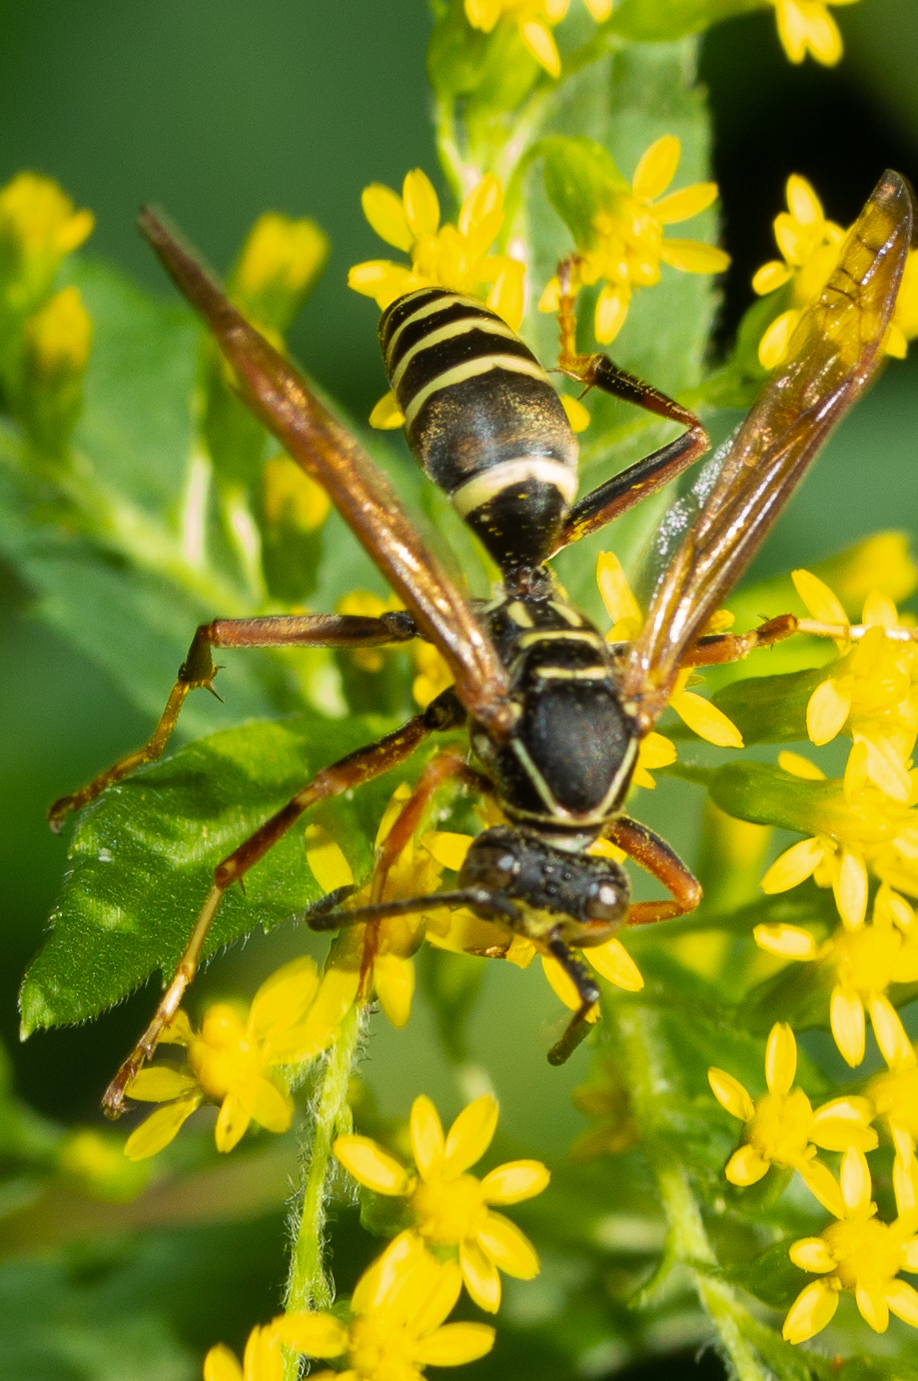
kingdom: Animalia
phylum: Arthropoda
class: Insecta
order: Hymenoptera
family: Eumenidae
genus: Polistes
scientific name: Polistes fuscatus
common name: Dark paper wasp
